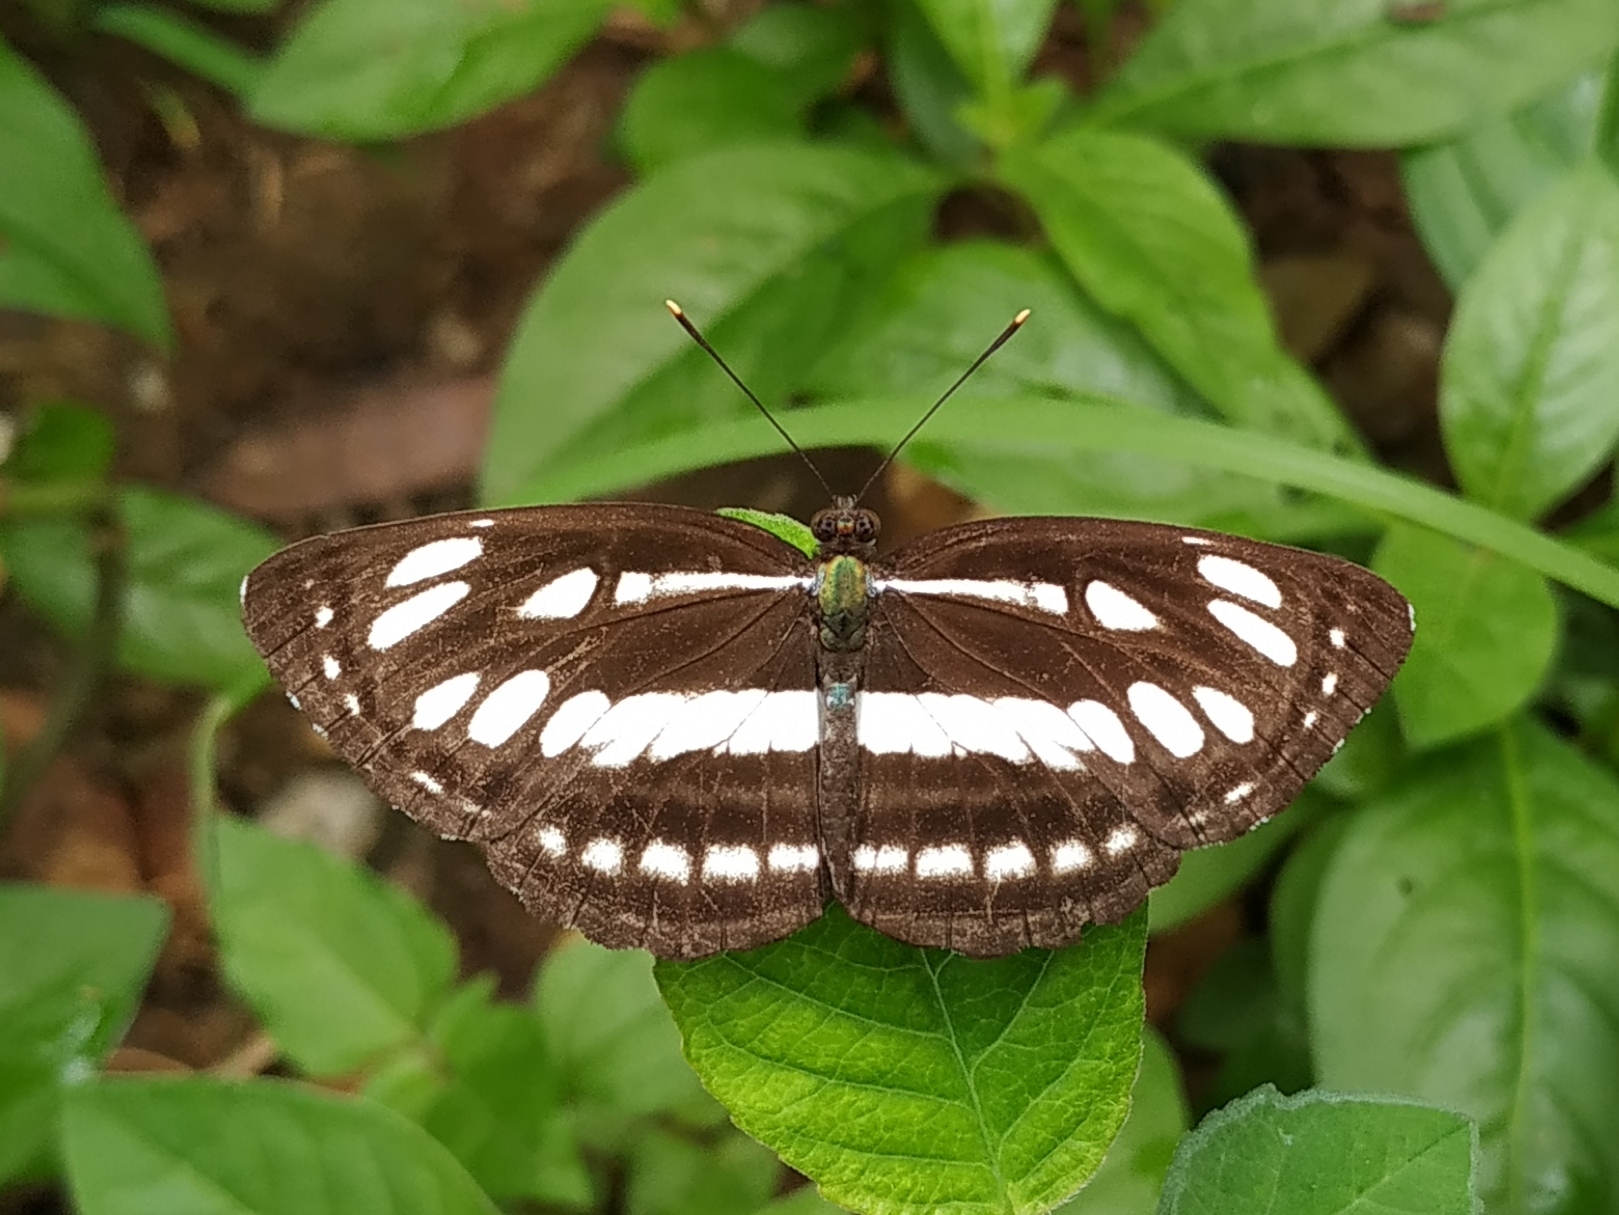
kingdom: Animalia
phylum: Arthropoda
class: Insecta
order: Lepidoptera
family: Nymphalidae
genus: Neptis
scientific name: Neptis hylas
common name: Common sailer
